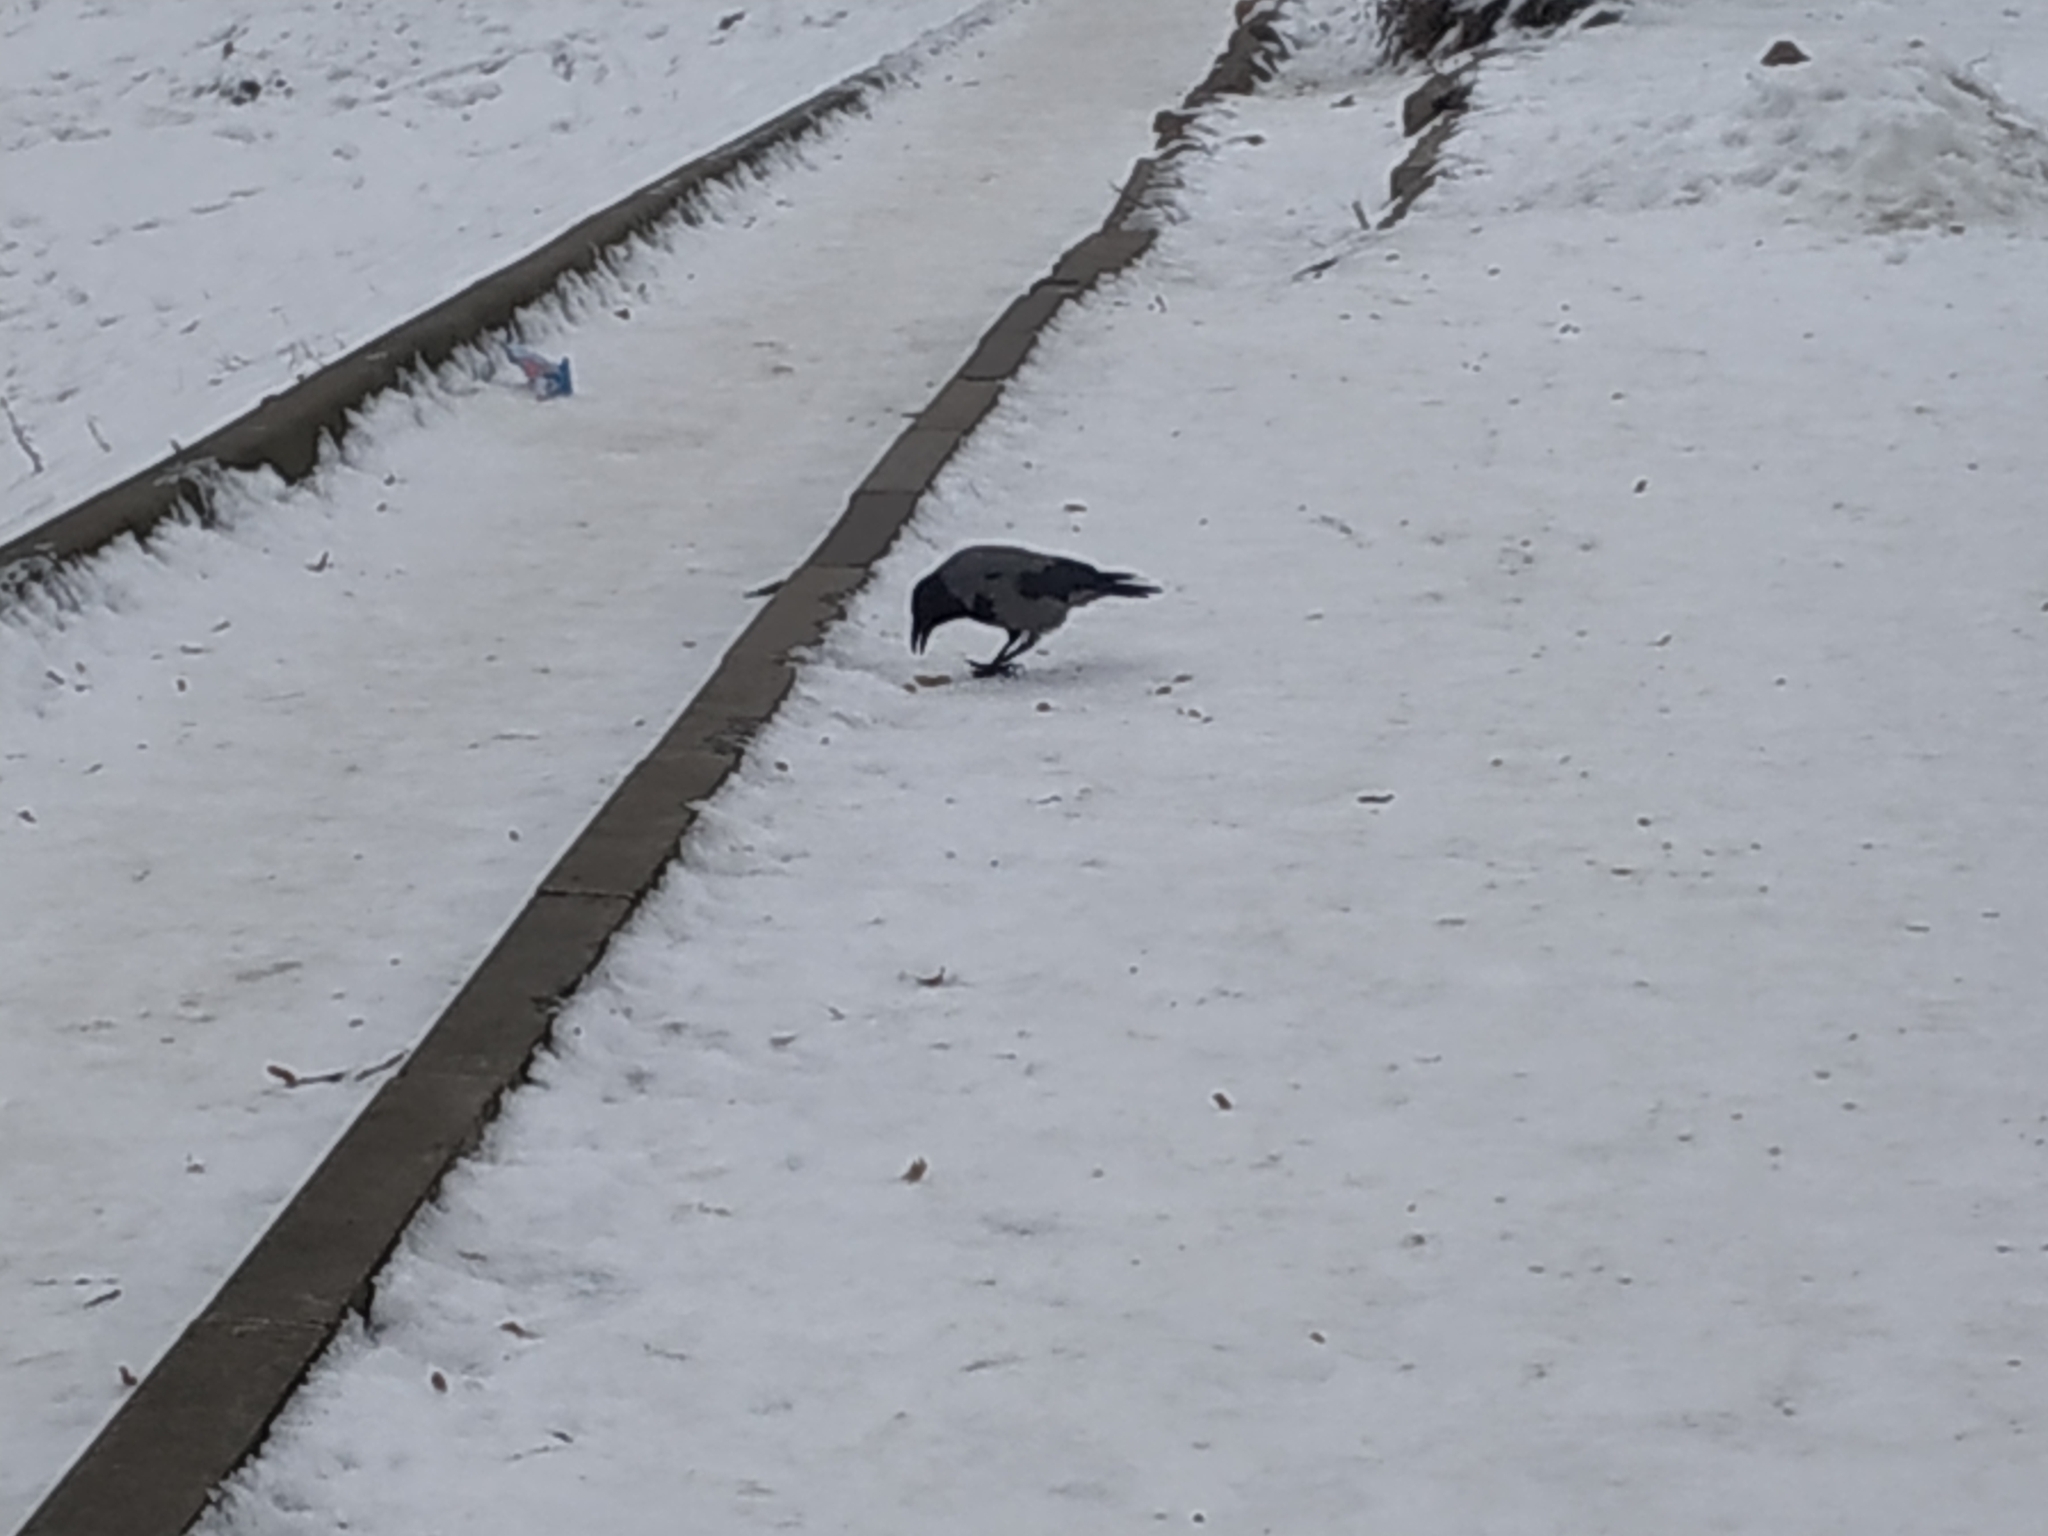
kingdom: Animalia
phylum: Chordata
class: Aves
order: Passeriformes
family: Corvidae
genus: Corvus
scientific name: Corvus cornix
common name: Hooded crow
